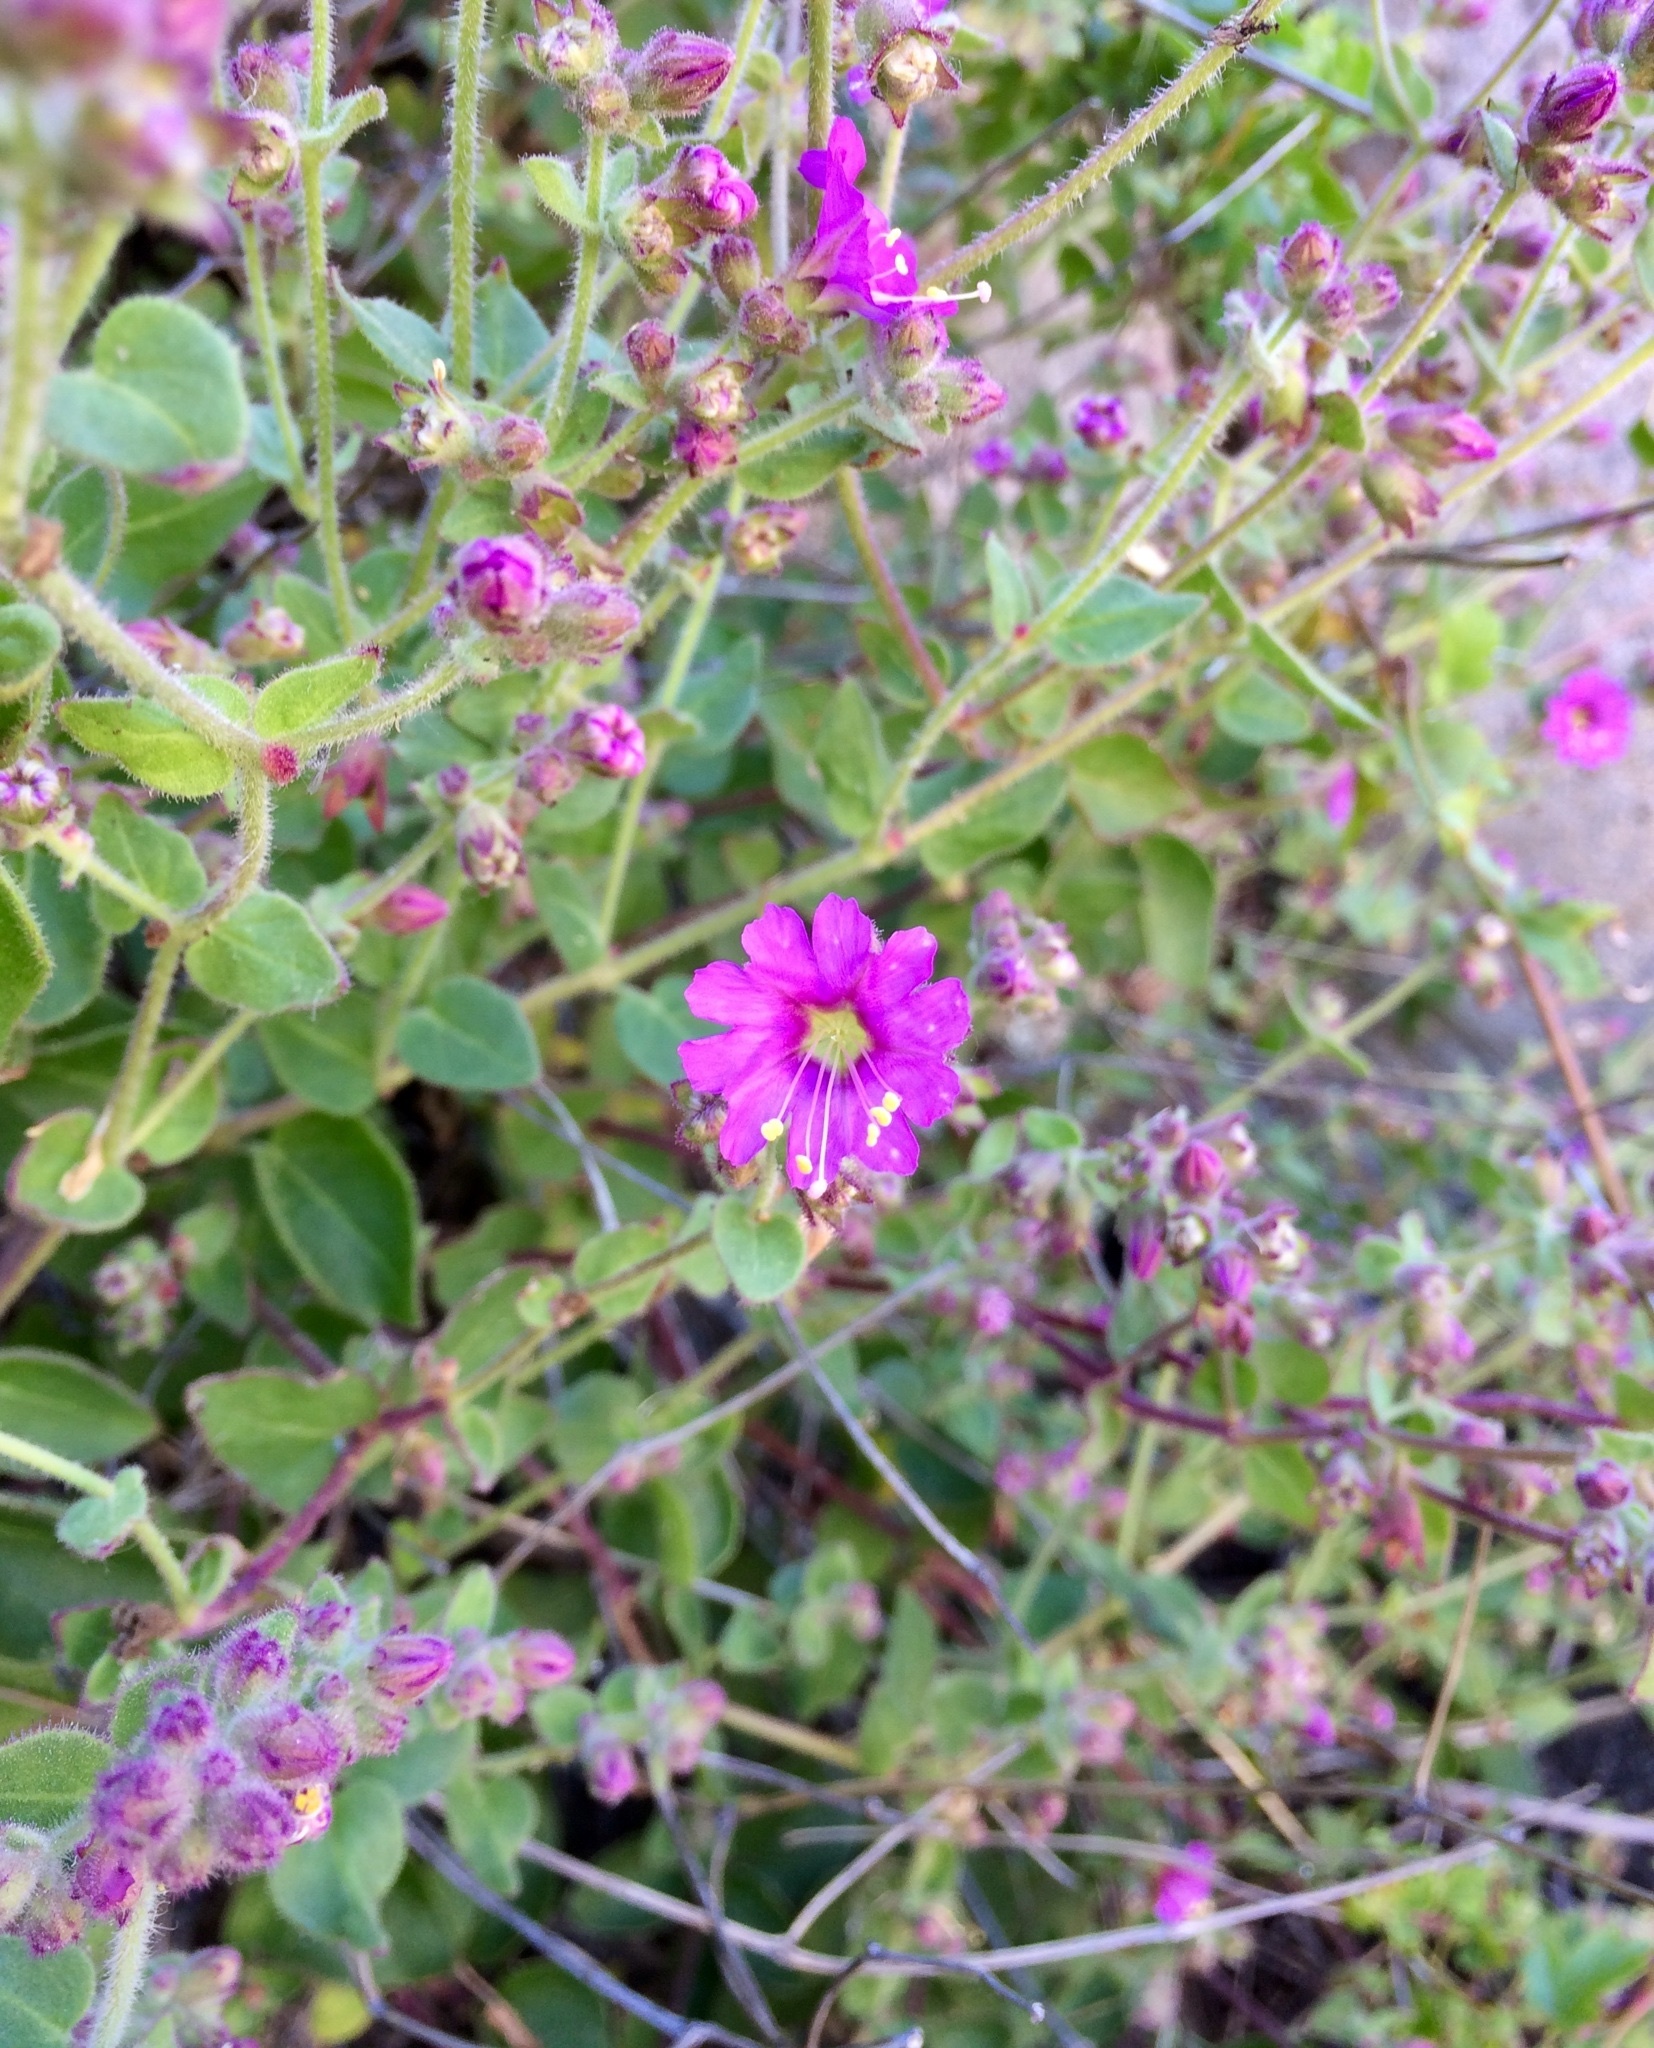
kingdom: Plantae
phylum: Tracheophyta
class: Magnoliopsida
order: Caryophyllales
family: Nyctaginaceae
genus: Mirabilis
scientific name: Mirabilis laevis
